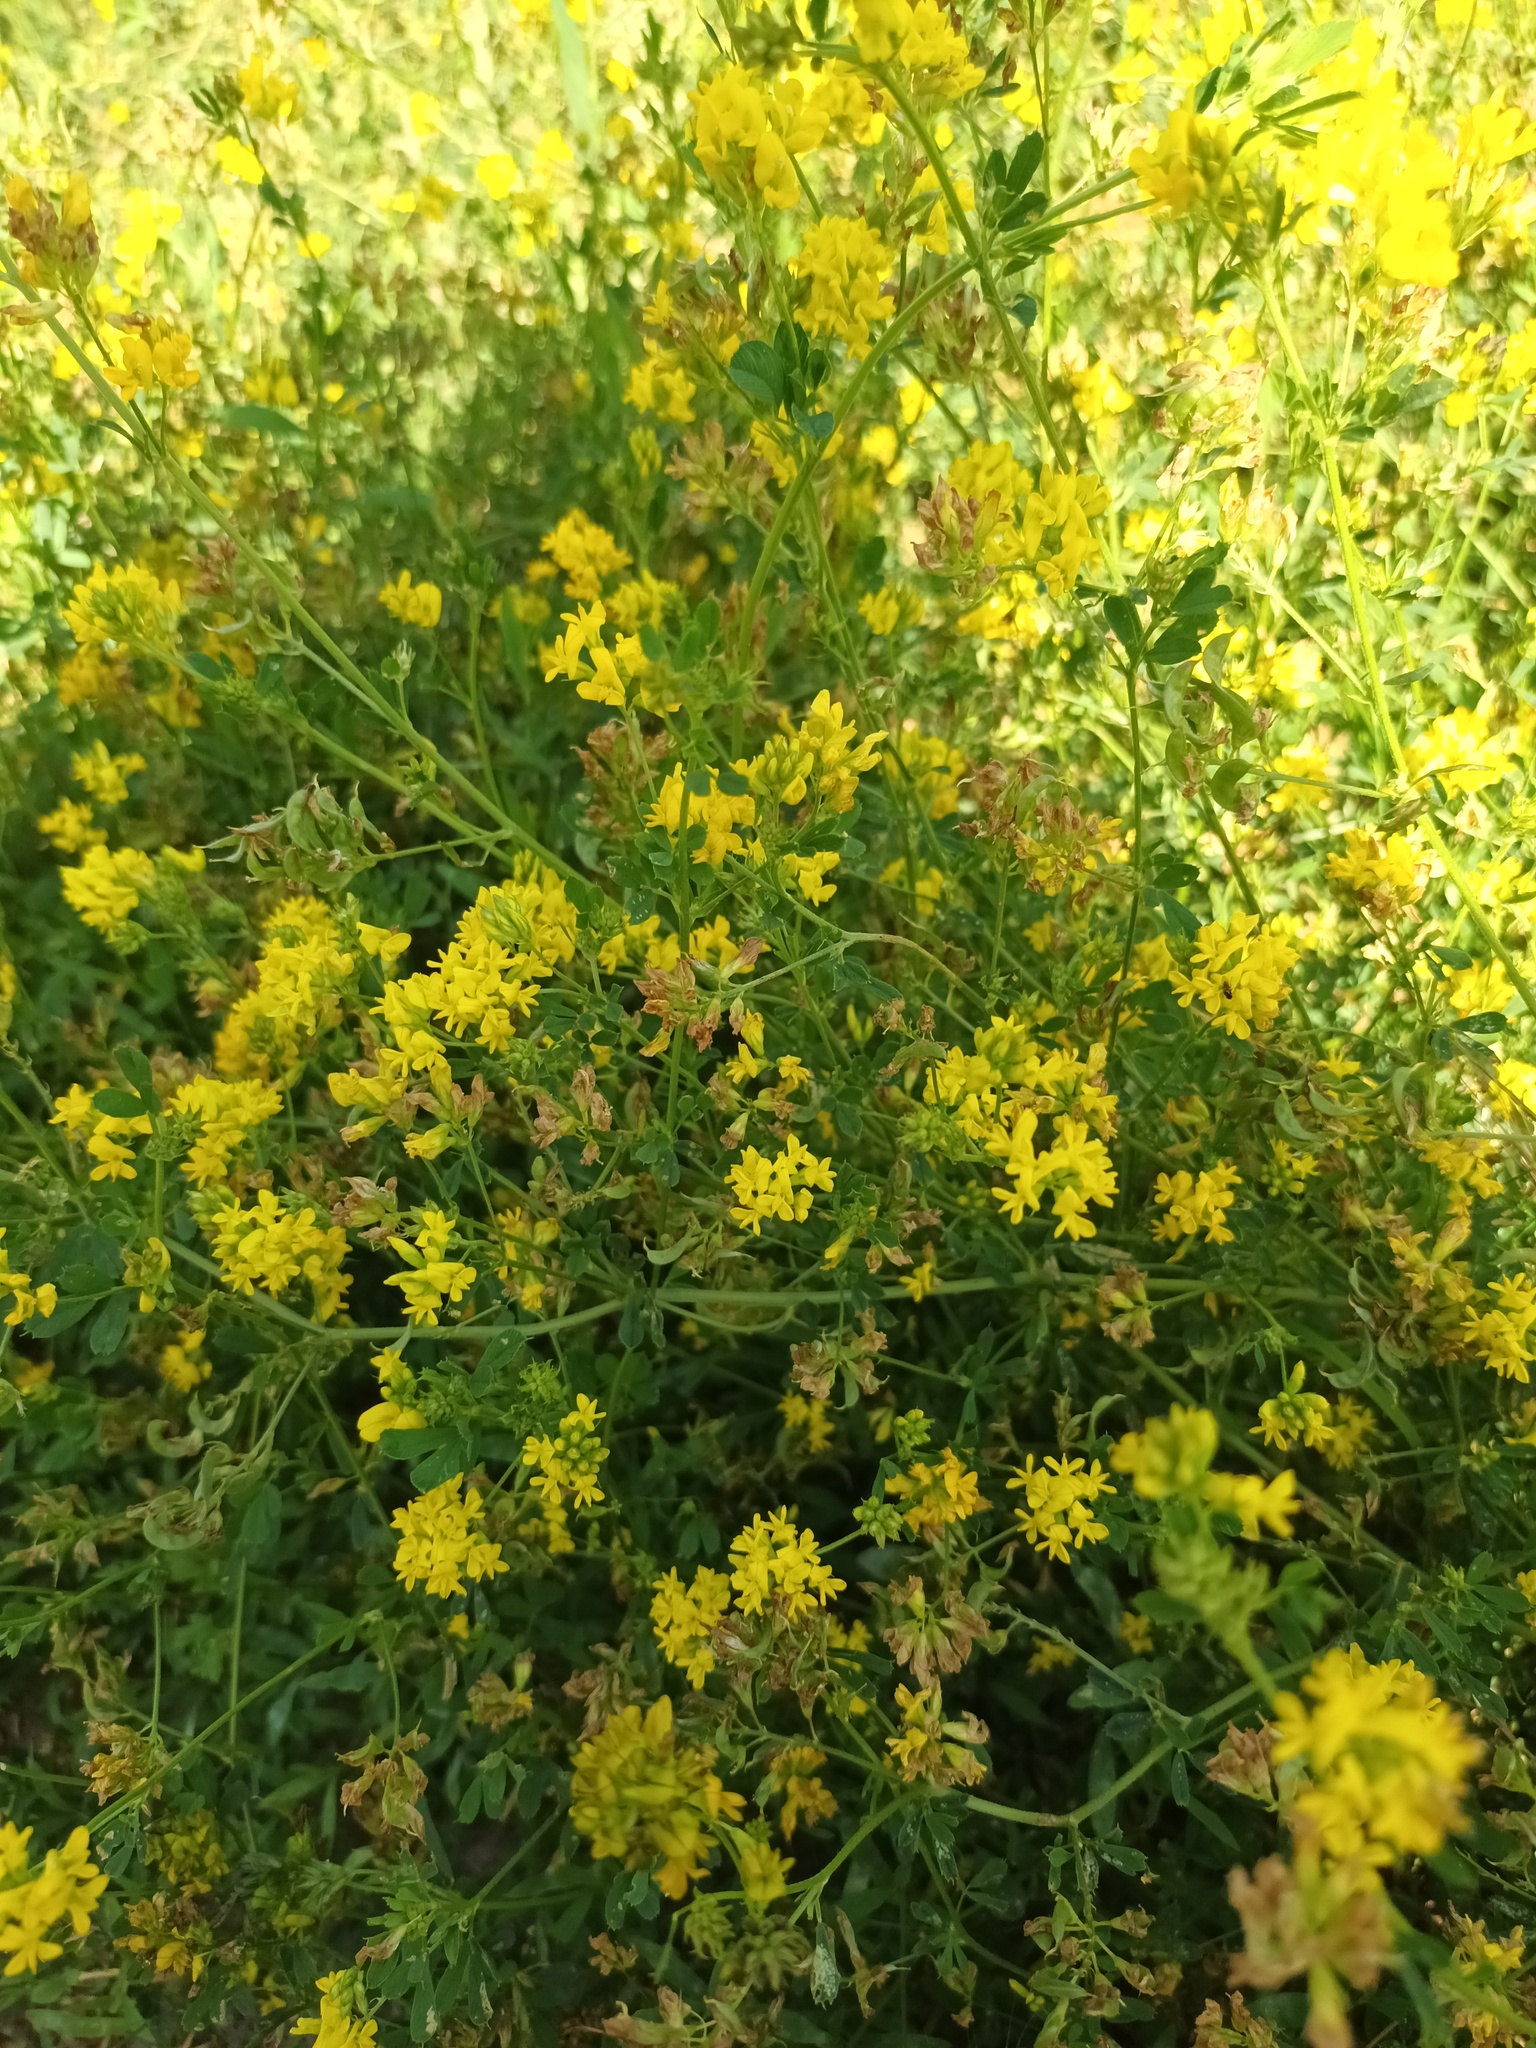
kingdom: Plantae
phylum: Tracheophyta
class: Magnoliopsida
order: Fabales
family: Fabaceae
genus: Medicago
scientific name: Medicago falcata
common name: Sickle medick
